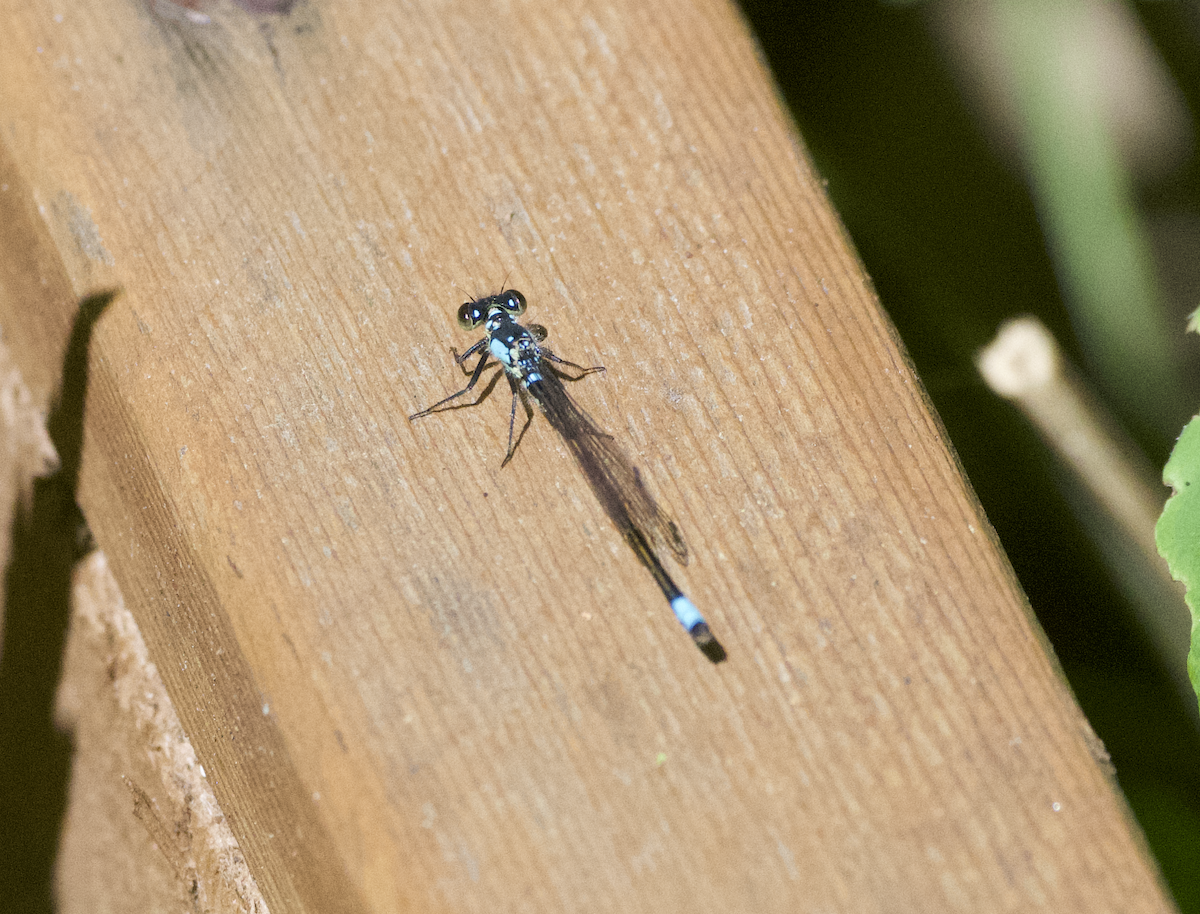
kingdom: Animalia
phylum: Arthropoda
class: Insecta
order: Odonata
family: Coenagrionidae
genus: Ischnura
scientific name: Ischnura cervula
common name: Pacific forktail
